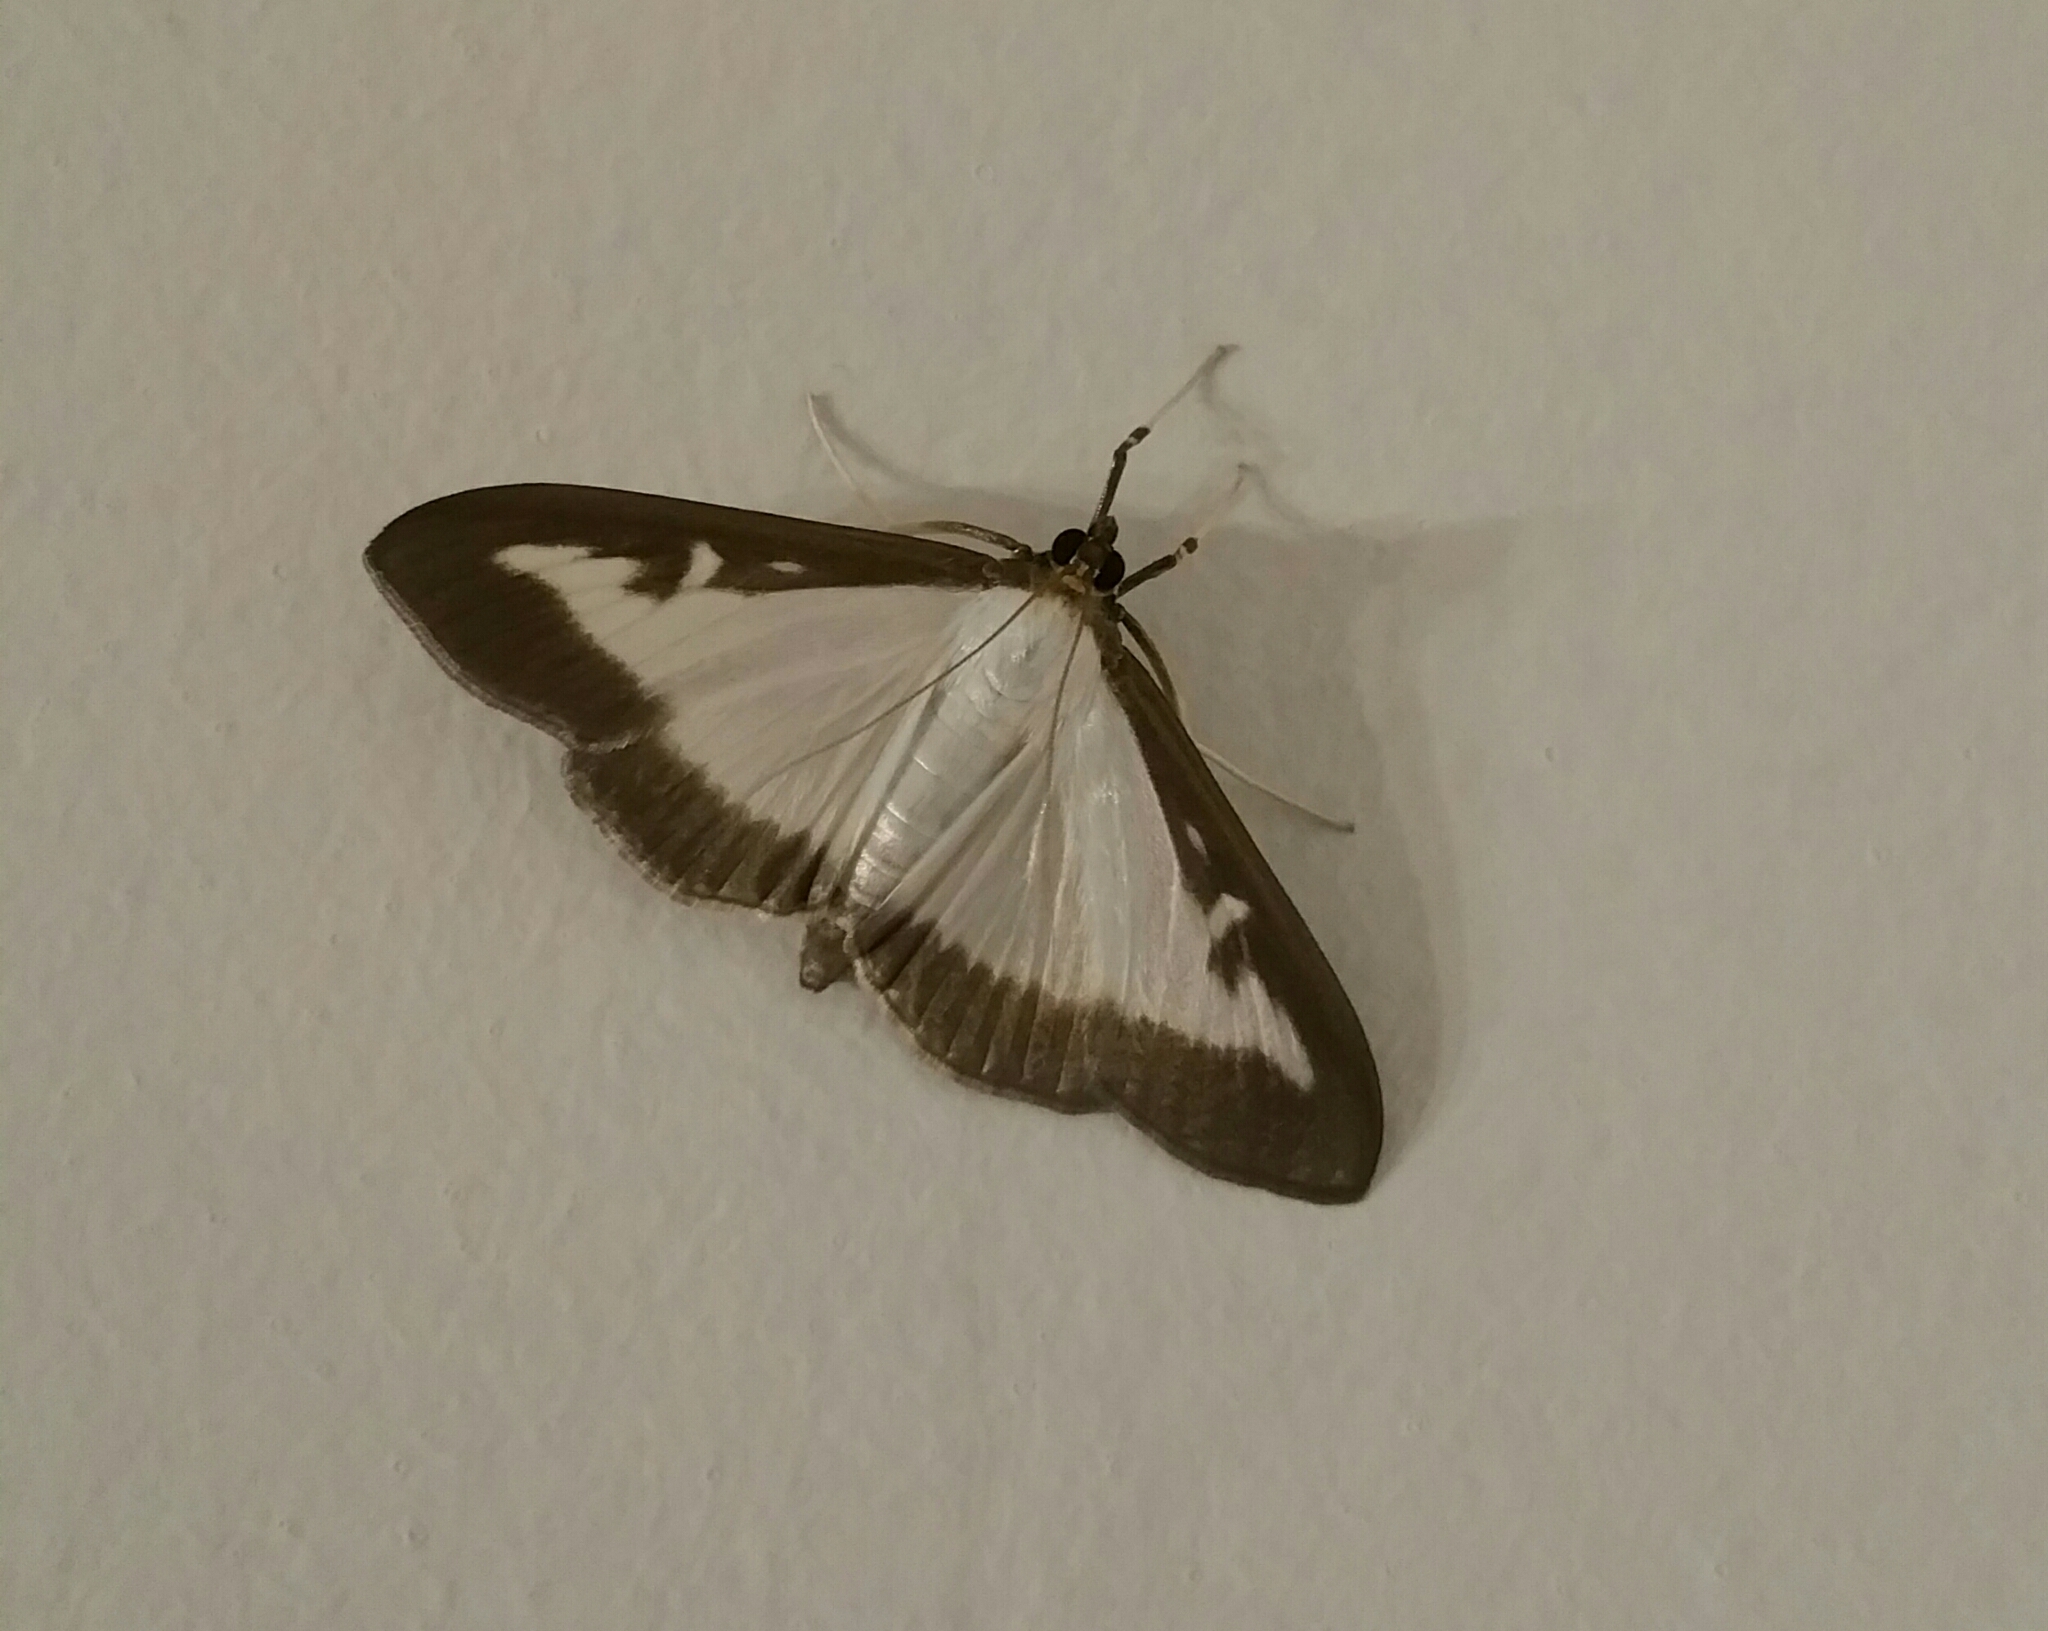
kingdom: Animalia
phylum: Arthropoda
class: Insecta
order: Lepidoptera
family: Crambidae
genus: Cydalima
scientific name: Cydalima perspectalis
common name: Box tree moth
